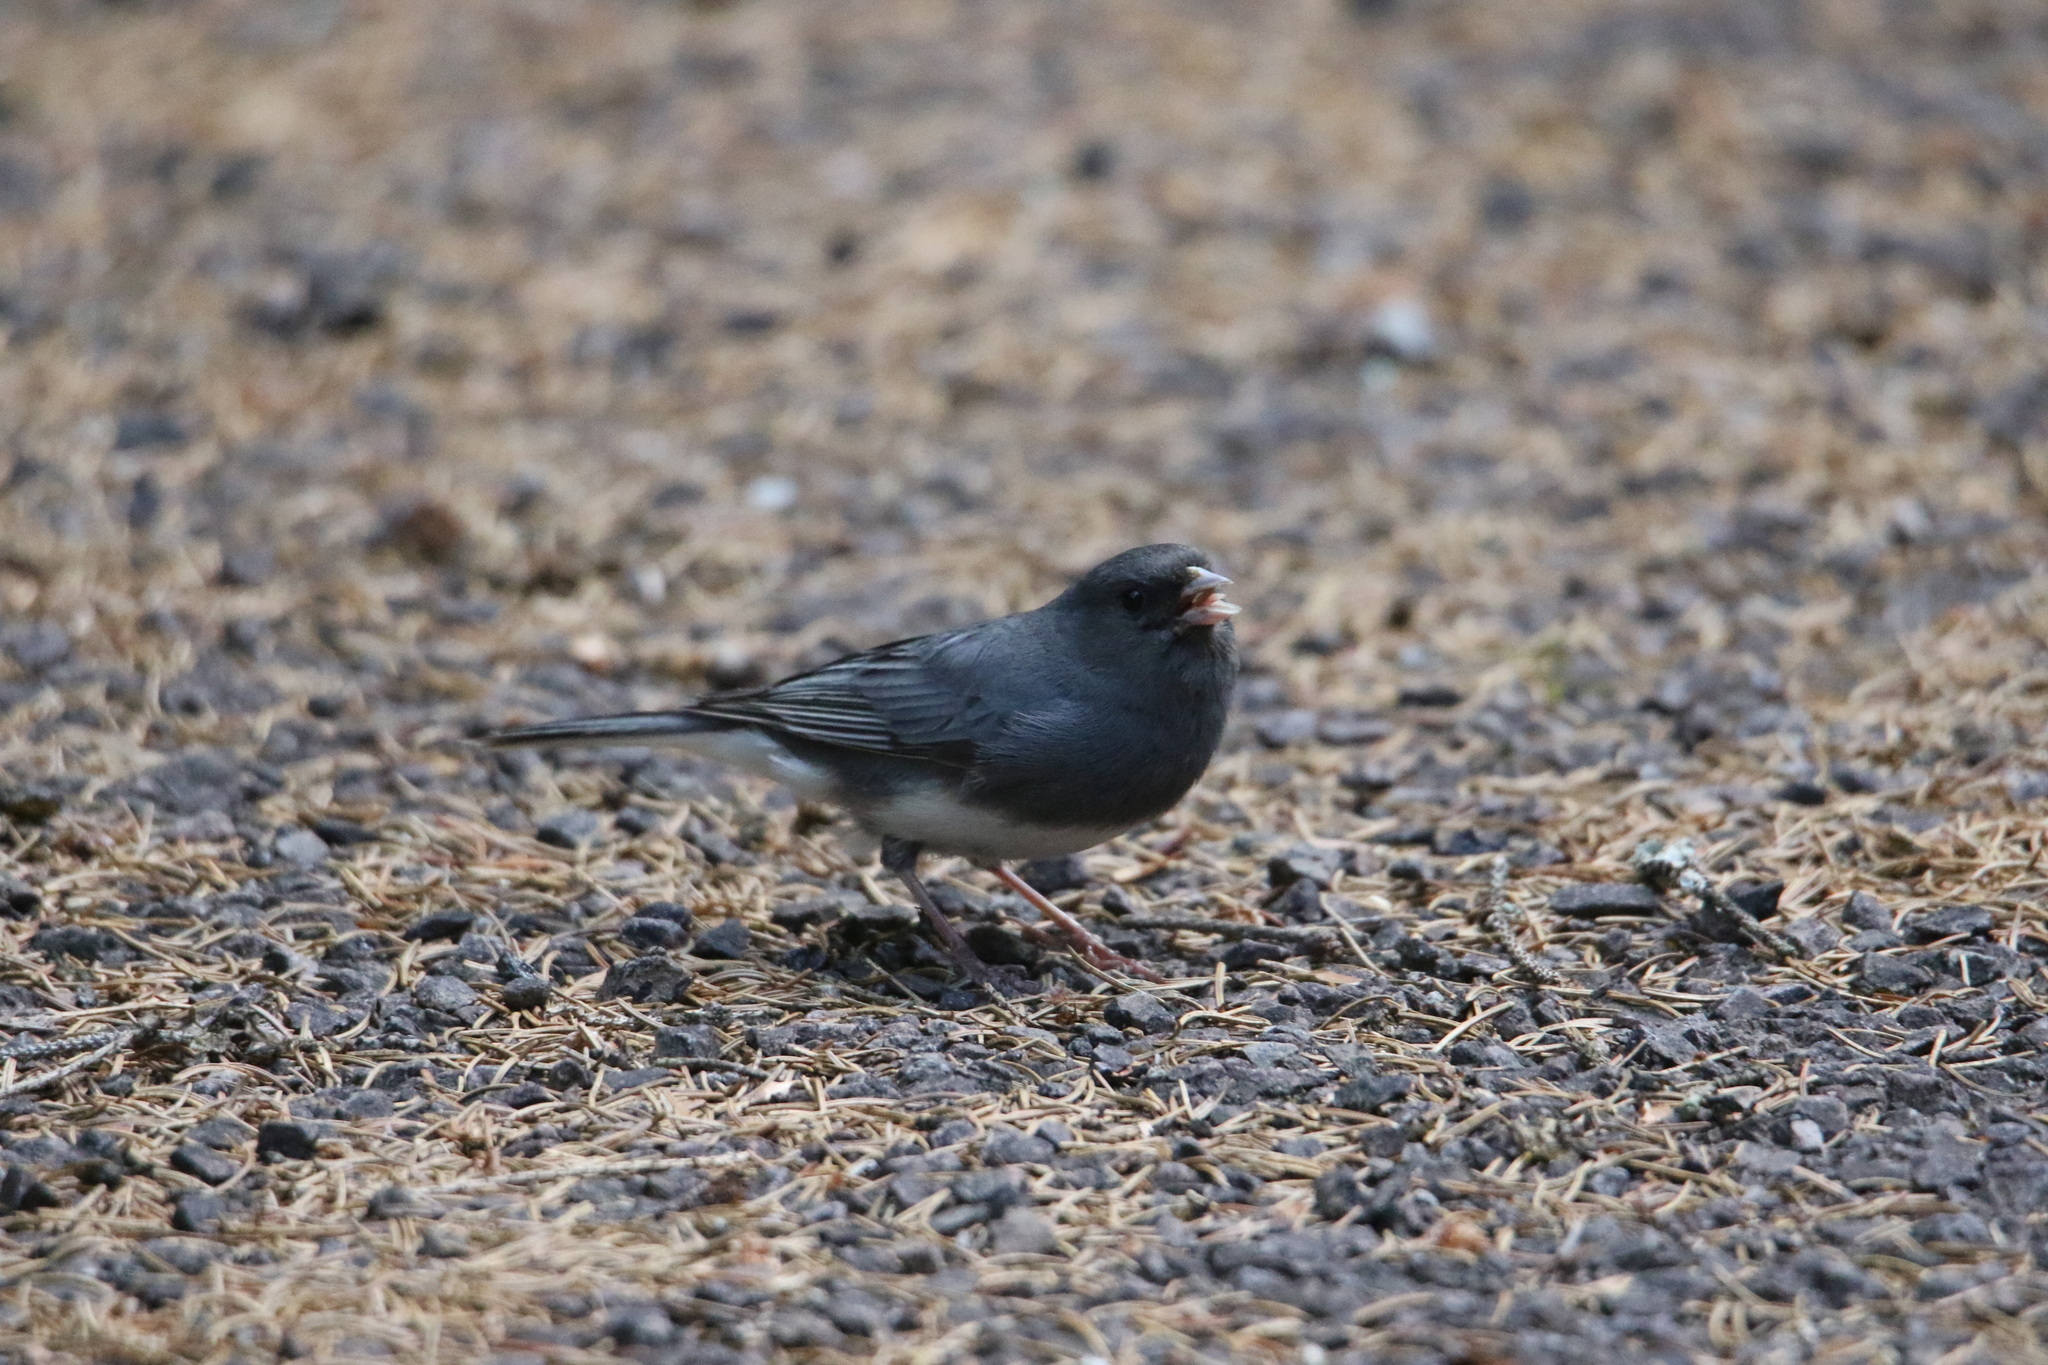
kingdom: Animalia
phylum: Chordata
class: Aves
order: Passeriformes
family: Passerellidae
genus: Junco
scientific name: Junco hyemalis
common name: Dark-eyed junco
